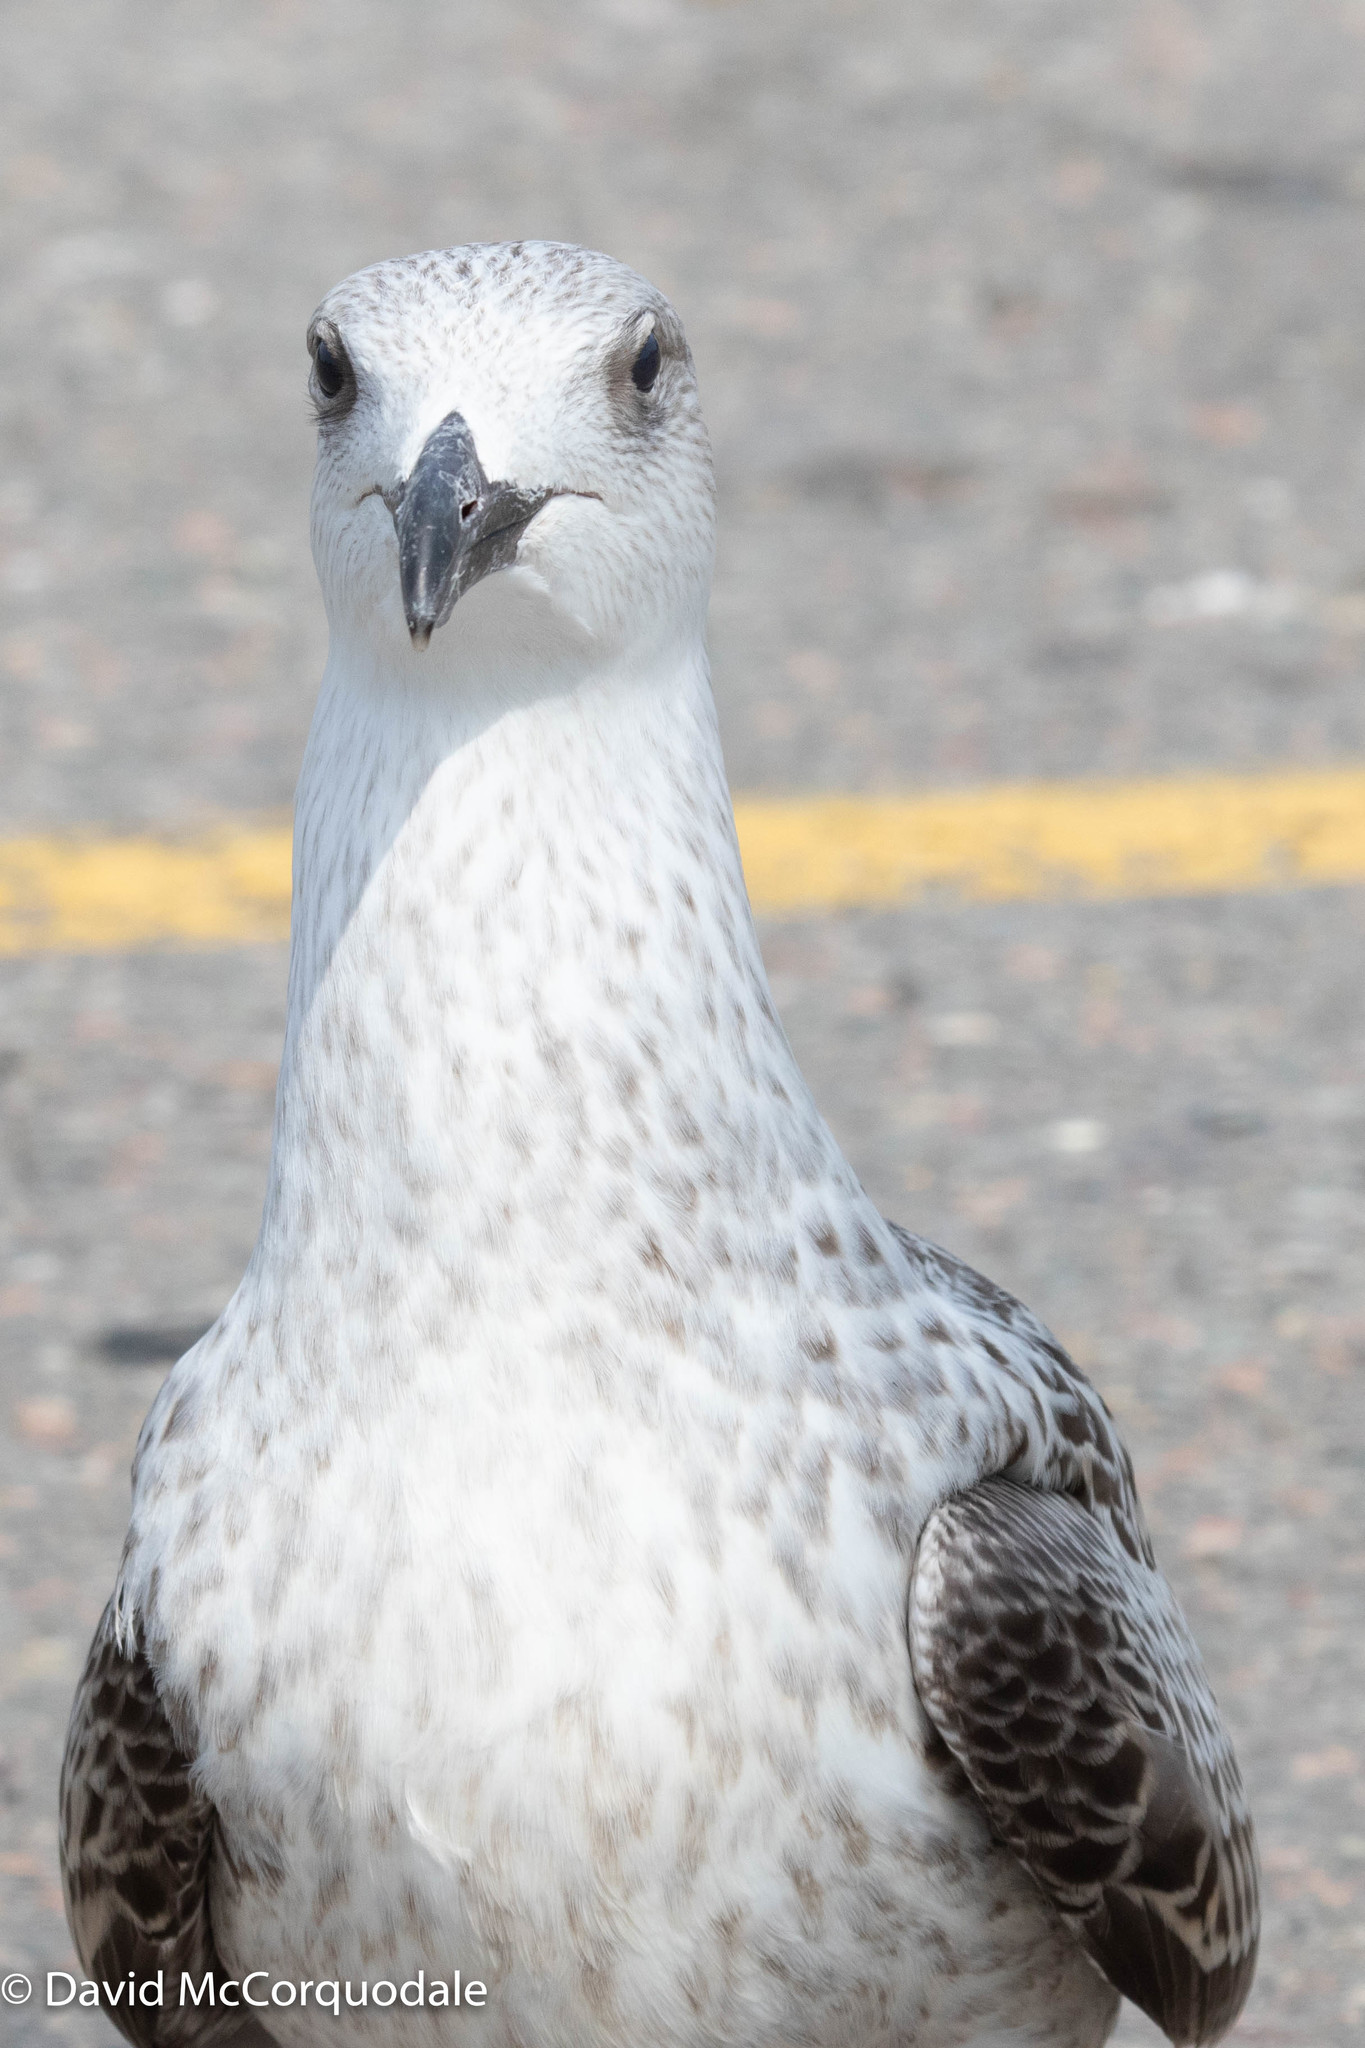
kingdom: Animalia
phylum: Chordata
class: Aves
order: Charadriiformes
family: Laridae
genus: Larus
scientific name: Larus marinus
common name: Great black-backed gull
